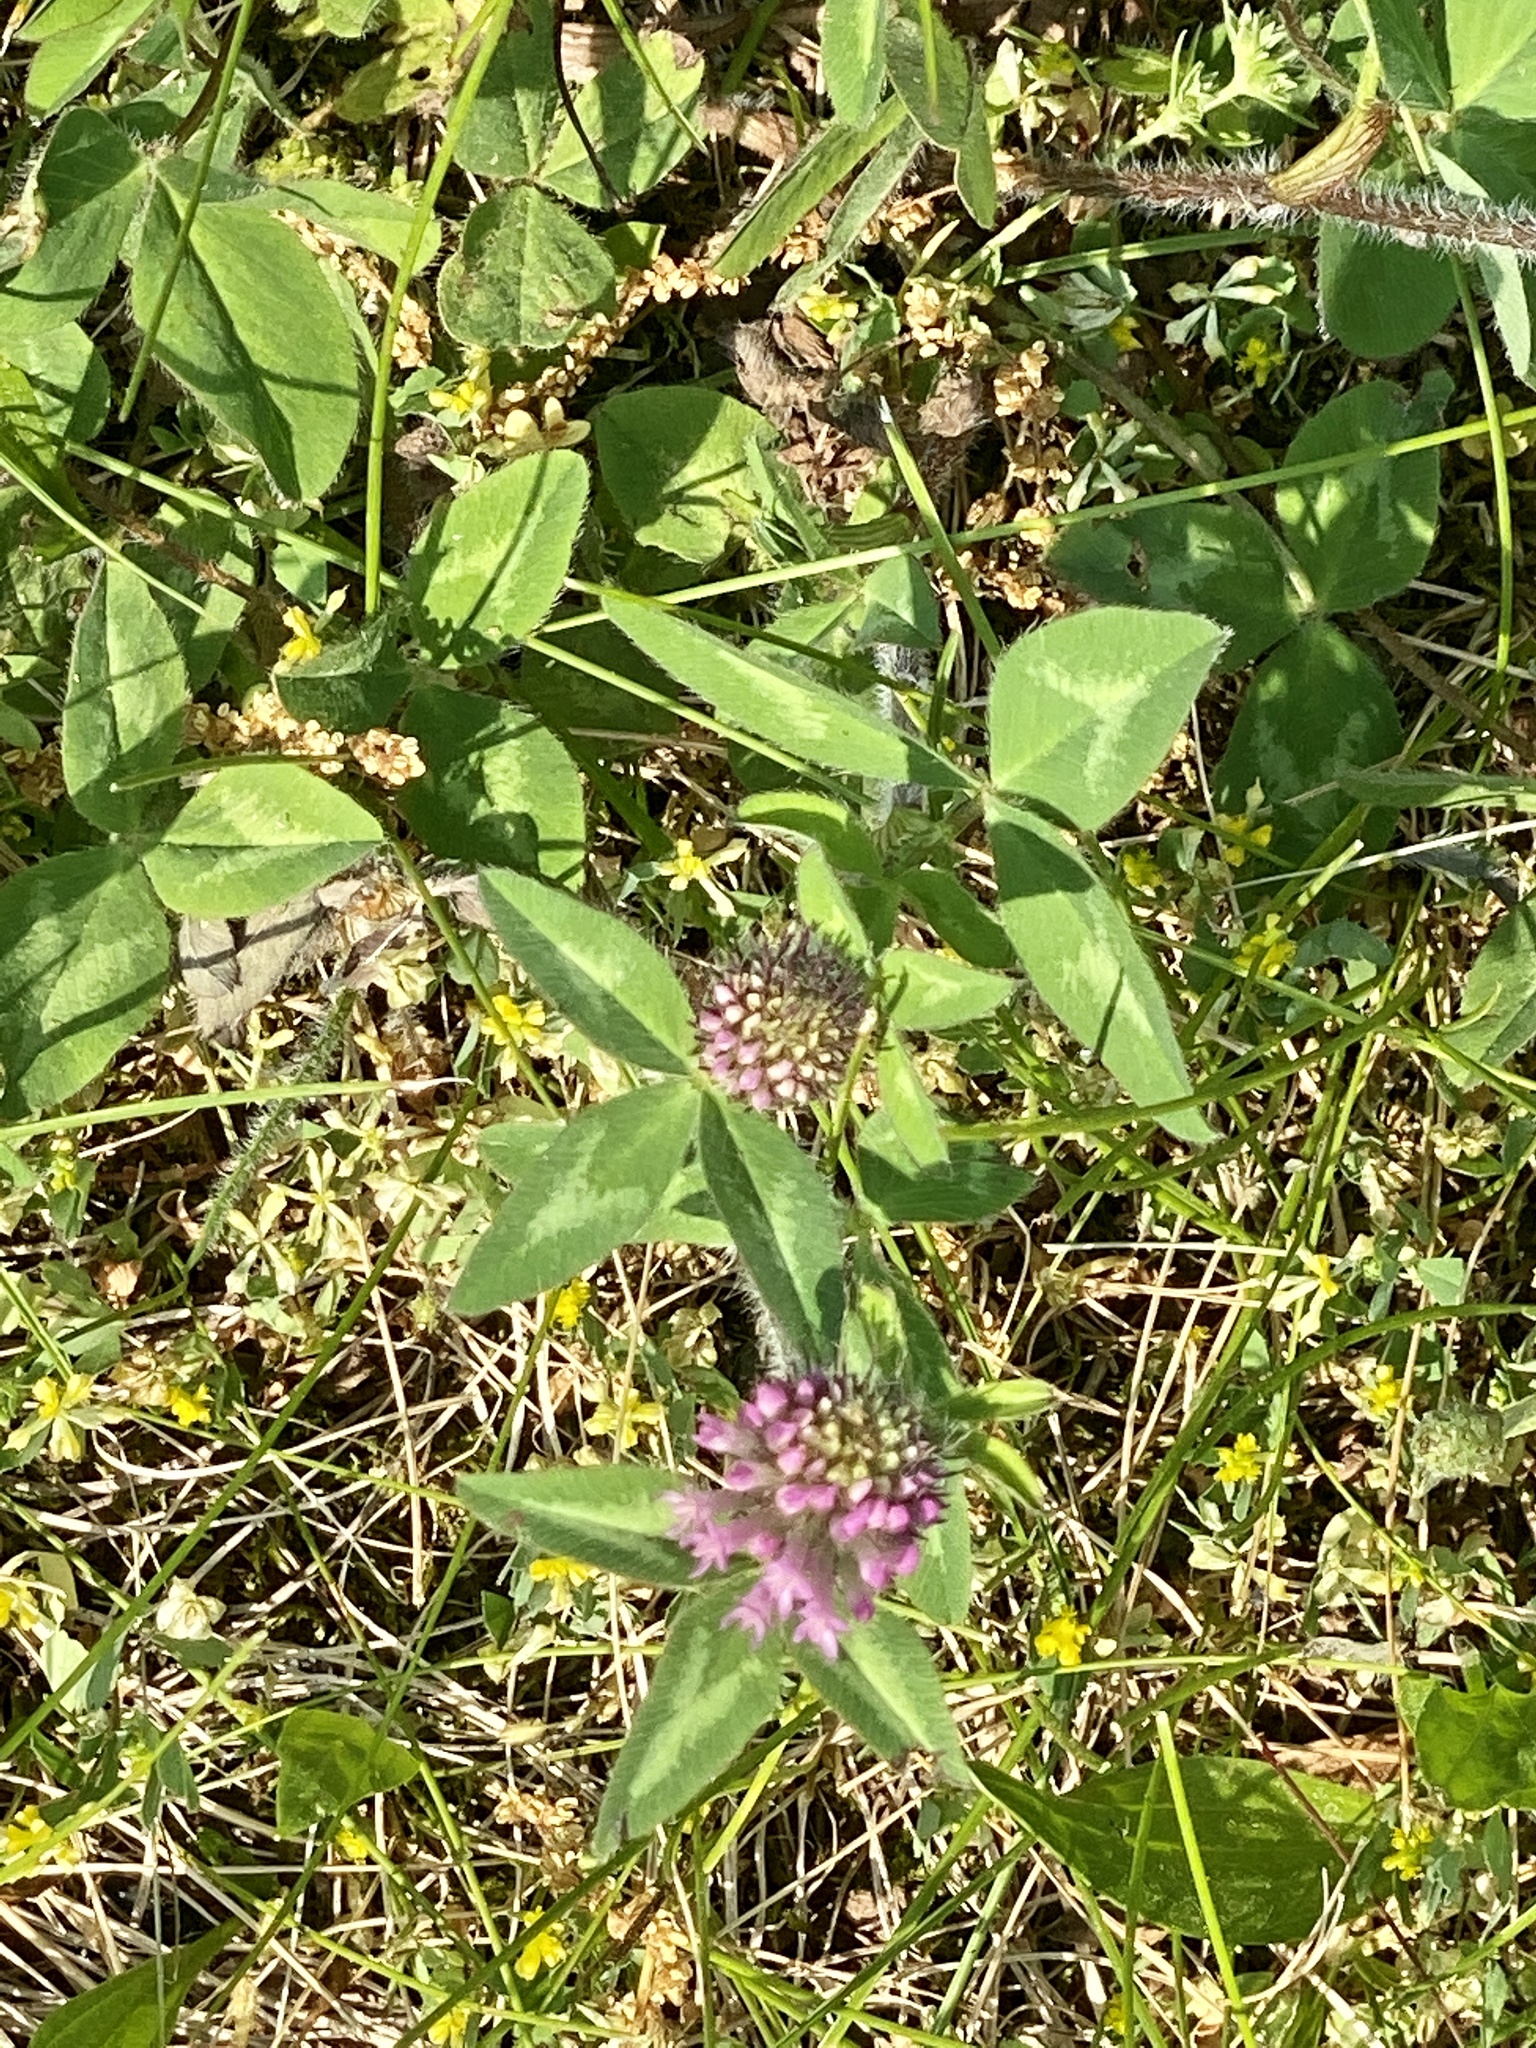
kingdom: Plantae
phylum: Tracheophyta
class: Magnoliopsida
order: Fabales
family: Fabaceae
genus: Trifolium
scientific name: Trifolium pratense
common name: Red clover
